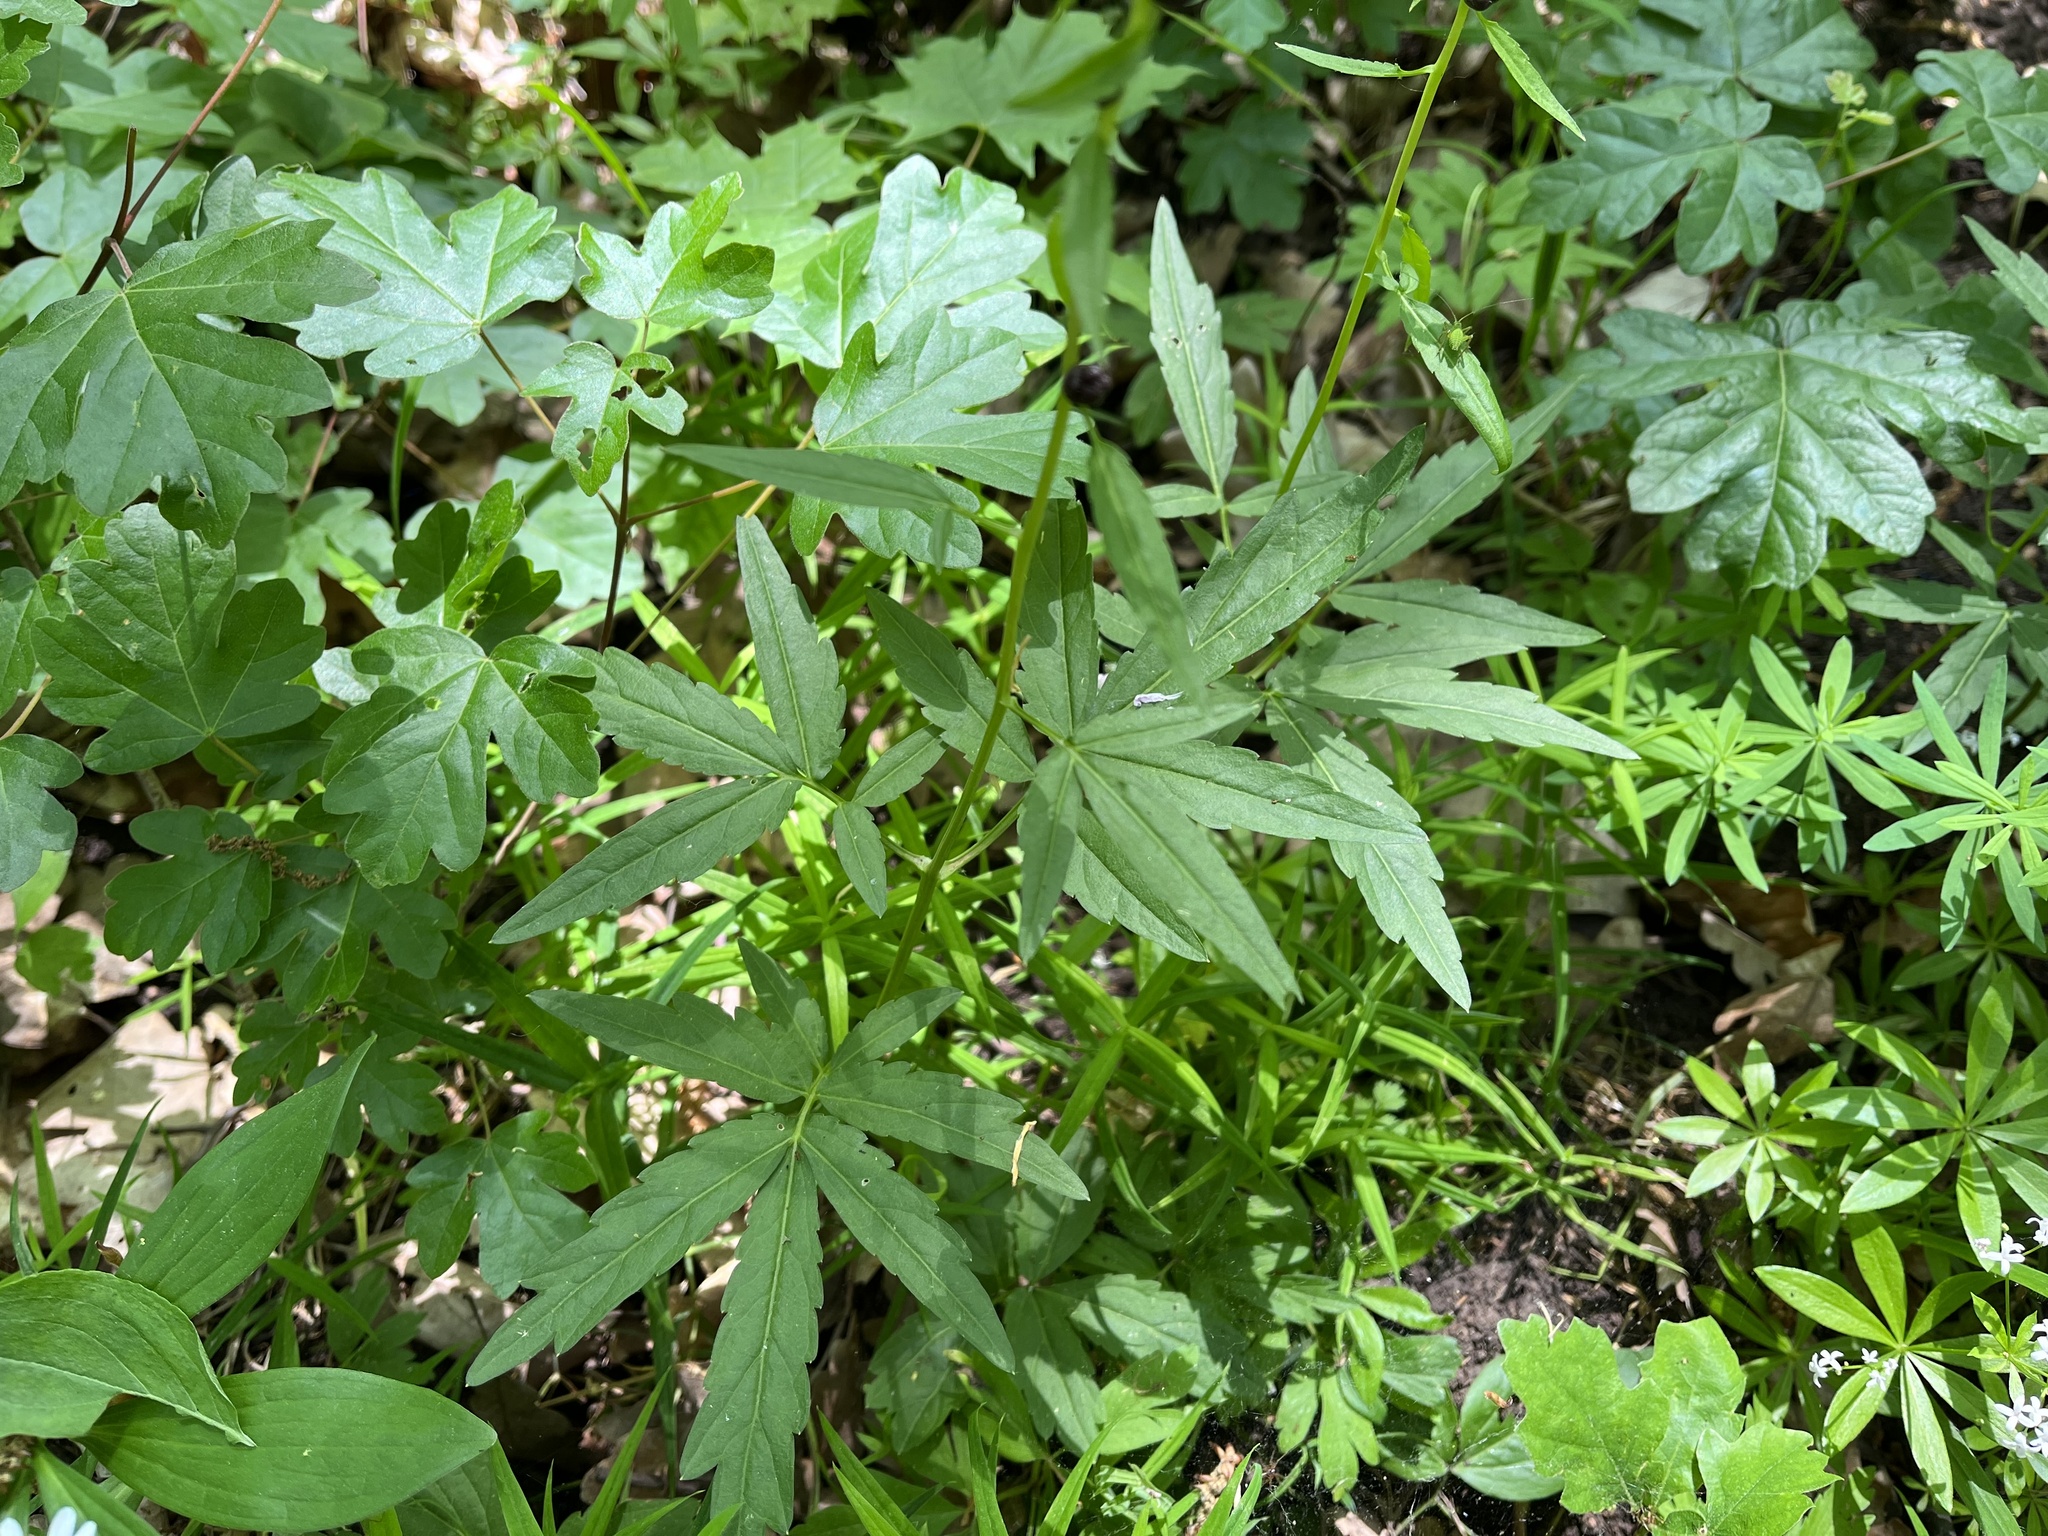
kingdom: Plantae
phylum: Tracheophyta
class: Magnoliopsida
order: Brassicales
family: Brassicaceae
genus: Cardamine
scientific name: Cardamine bulbifera
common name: Coralroot bittercress
